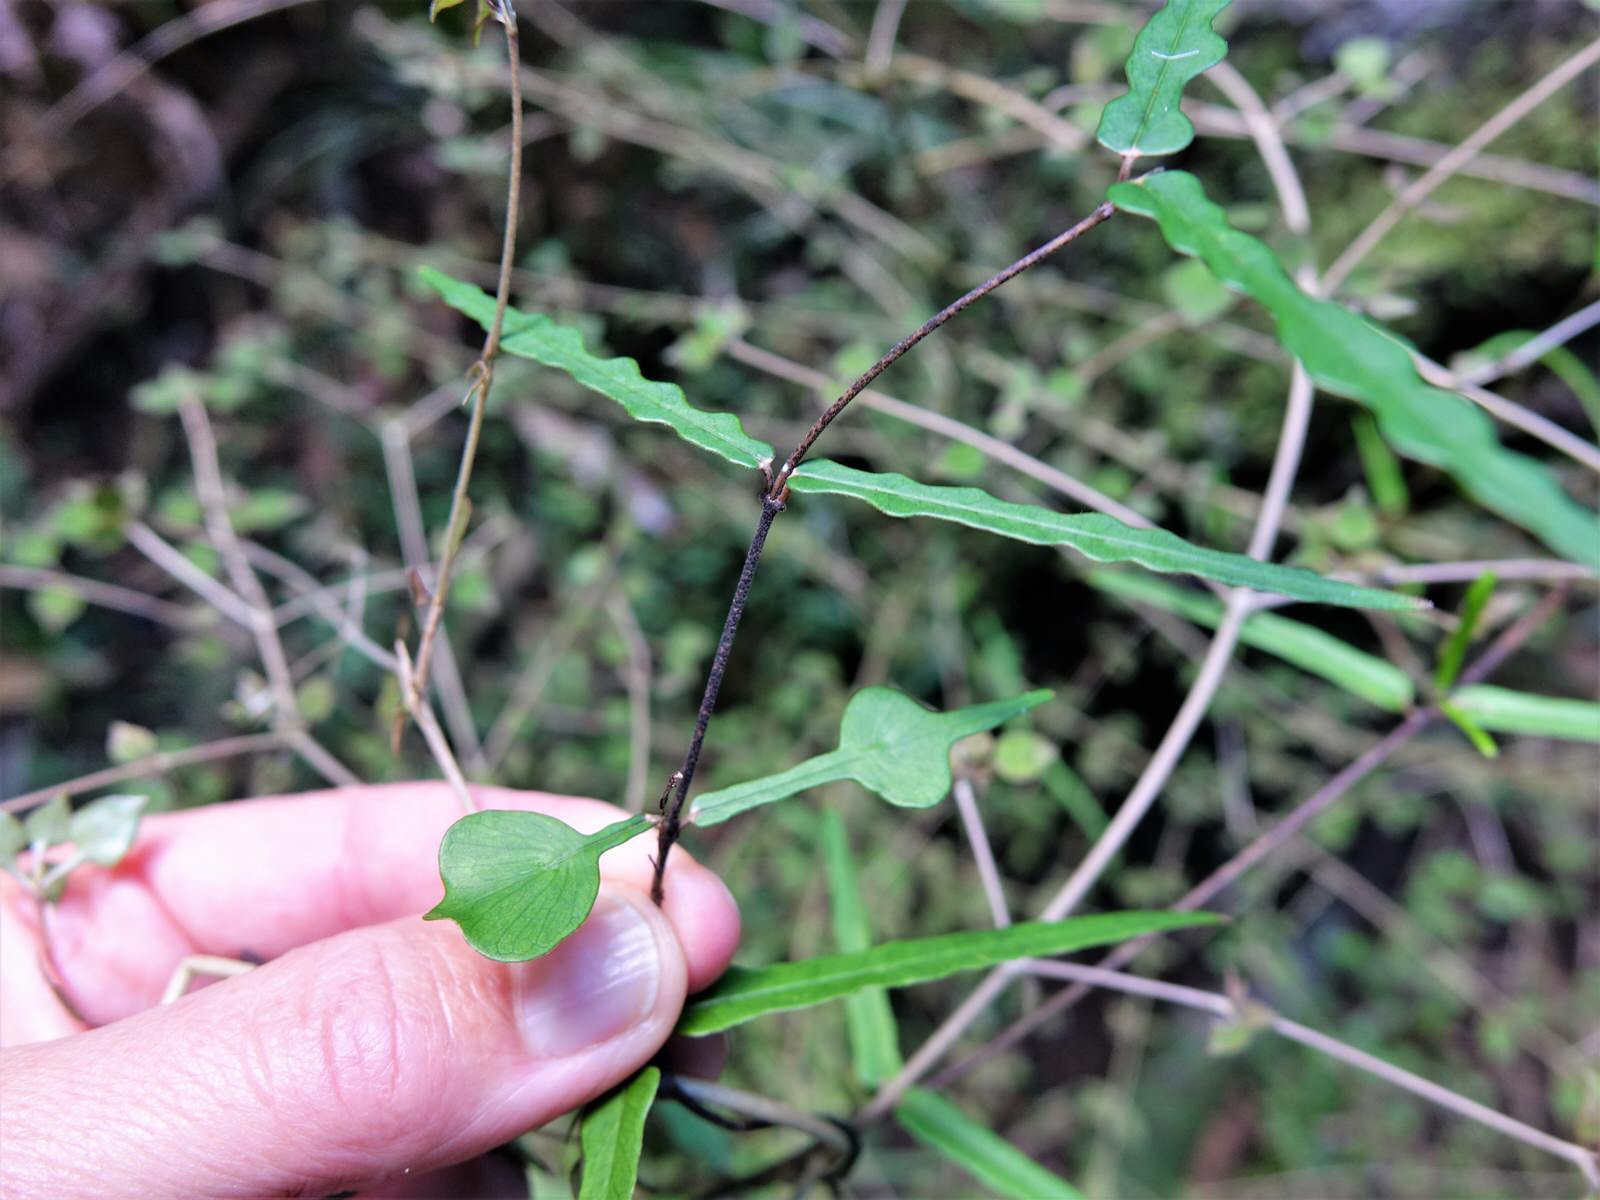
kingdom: Plantae
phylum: Tracheophyta
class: Magnoliopsida
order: Gentianales
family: Apocynaceae
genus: Parsonsia
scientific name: Parsonsia heterophylla
